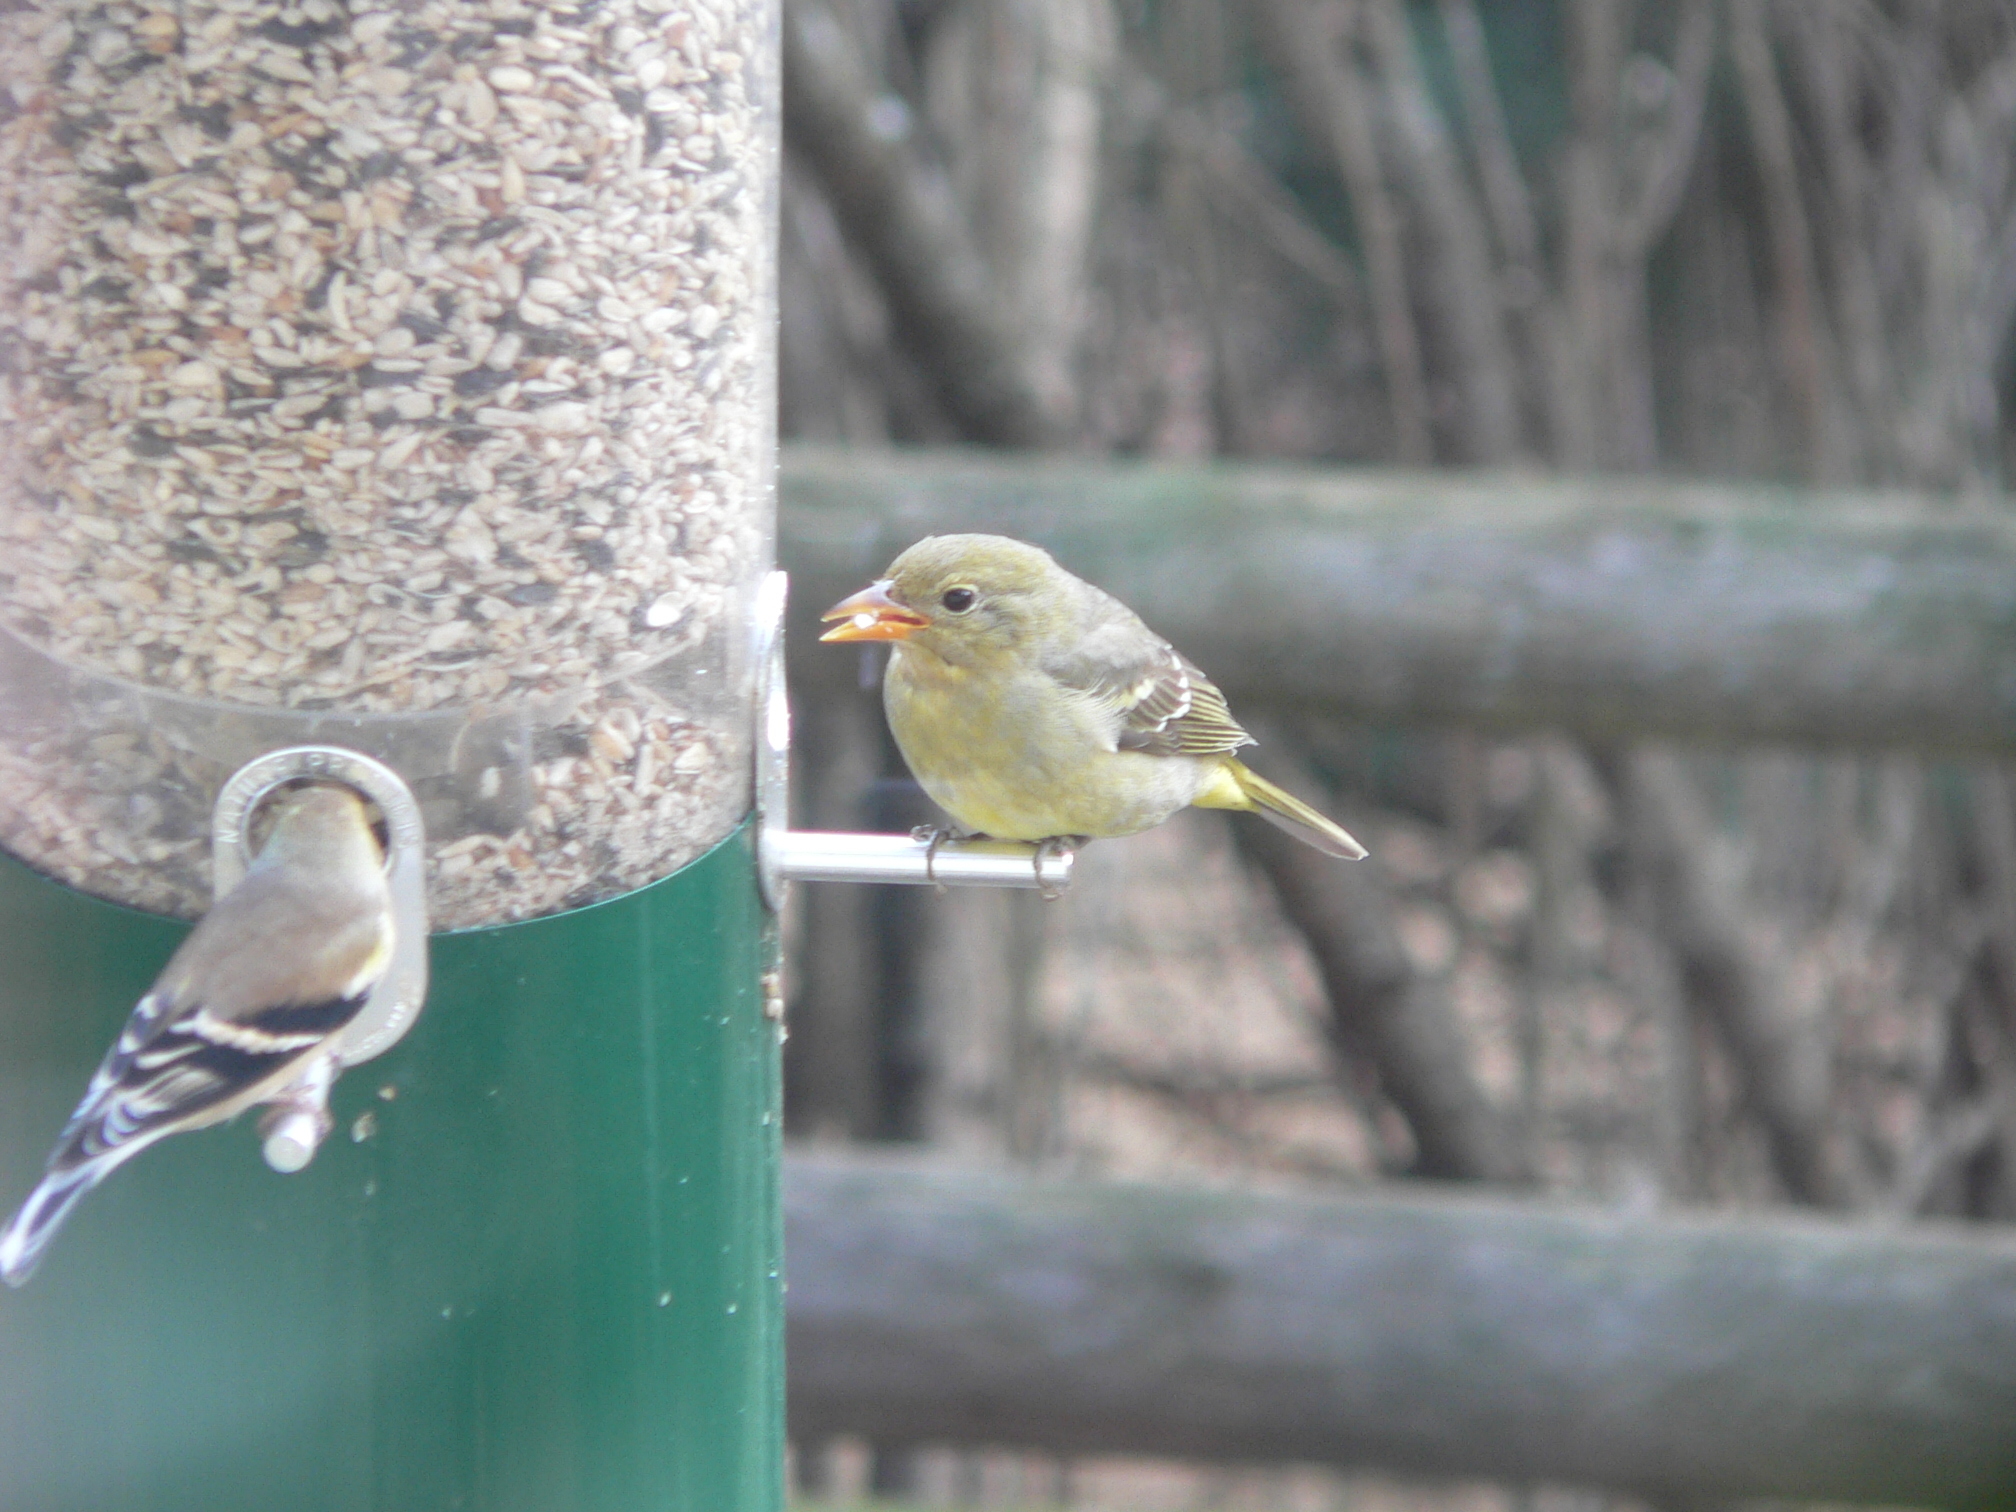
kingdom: Animalia
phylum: Chordata
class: Aves
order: Passeriformes
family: Cardinalidae
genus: Piranga
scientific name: Piranga ludoviciana
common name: Western tanager
